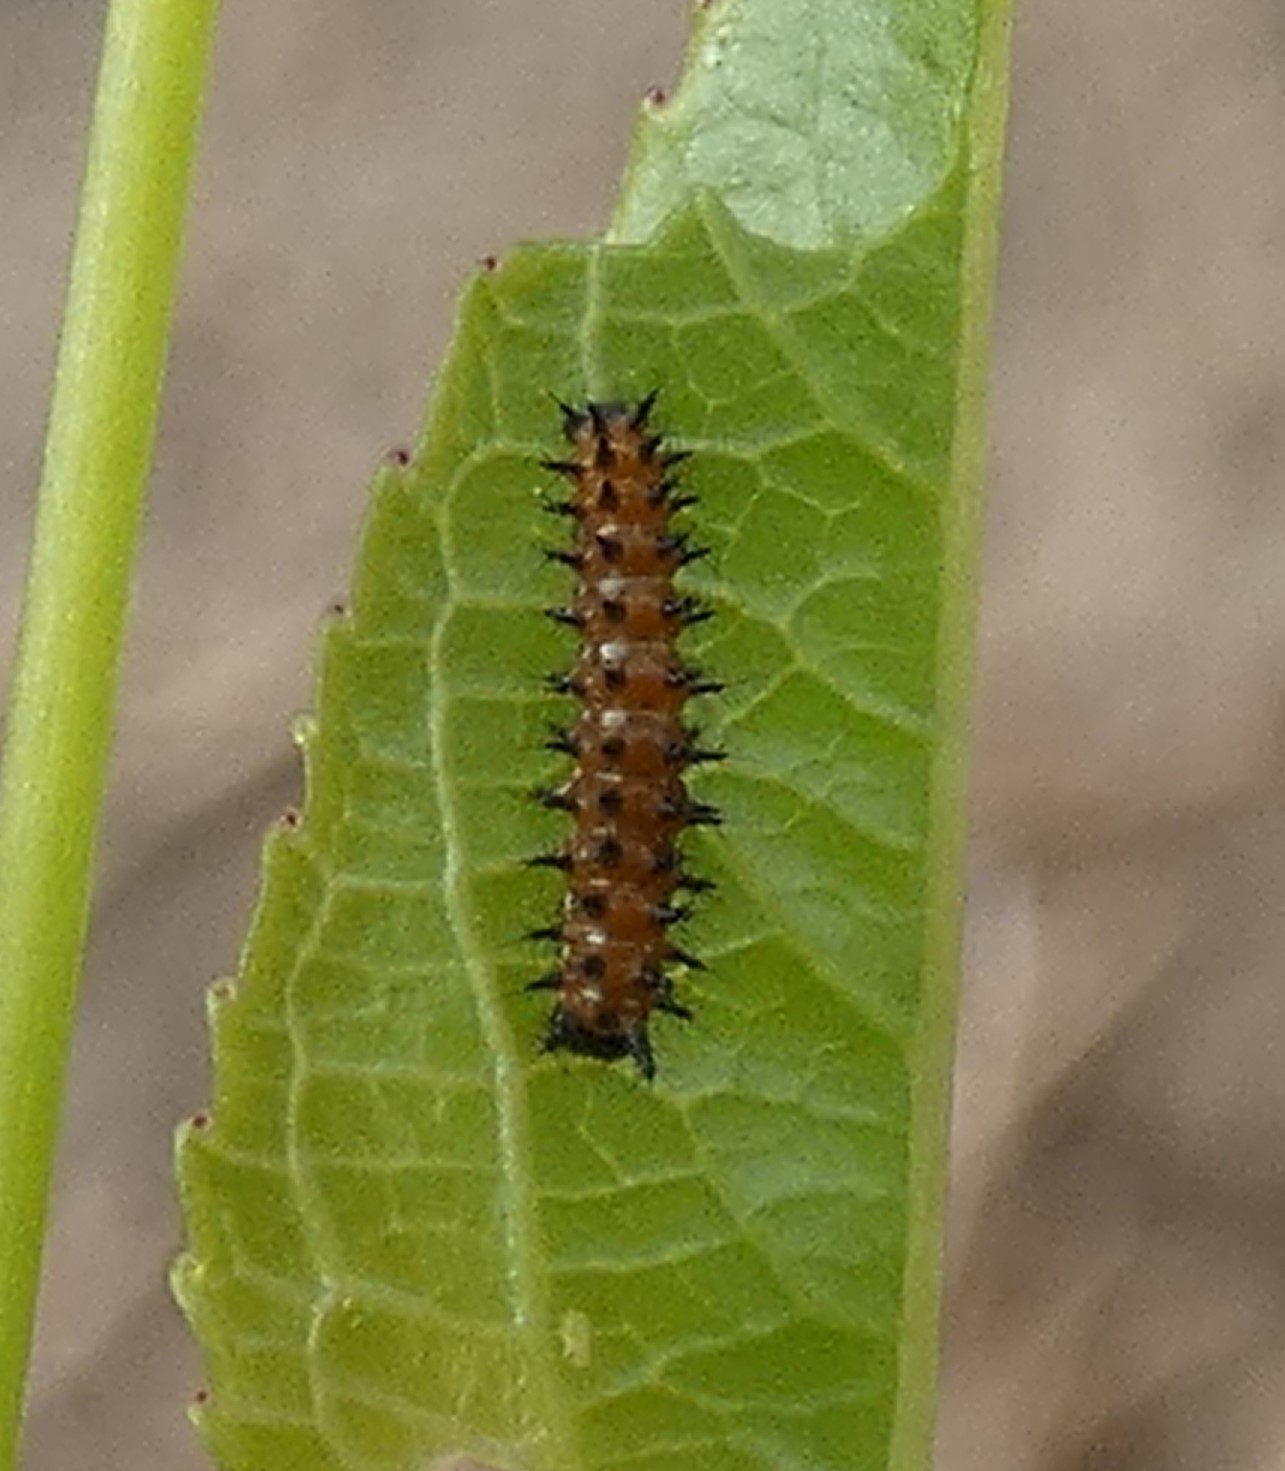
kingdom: Animalia
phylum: Arthropoda
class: Insecta
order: Lepidoptera
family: Nymphalidae
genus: Dione
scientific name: Dione vanillae
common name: Gulf fritillary
